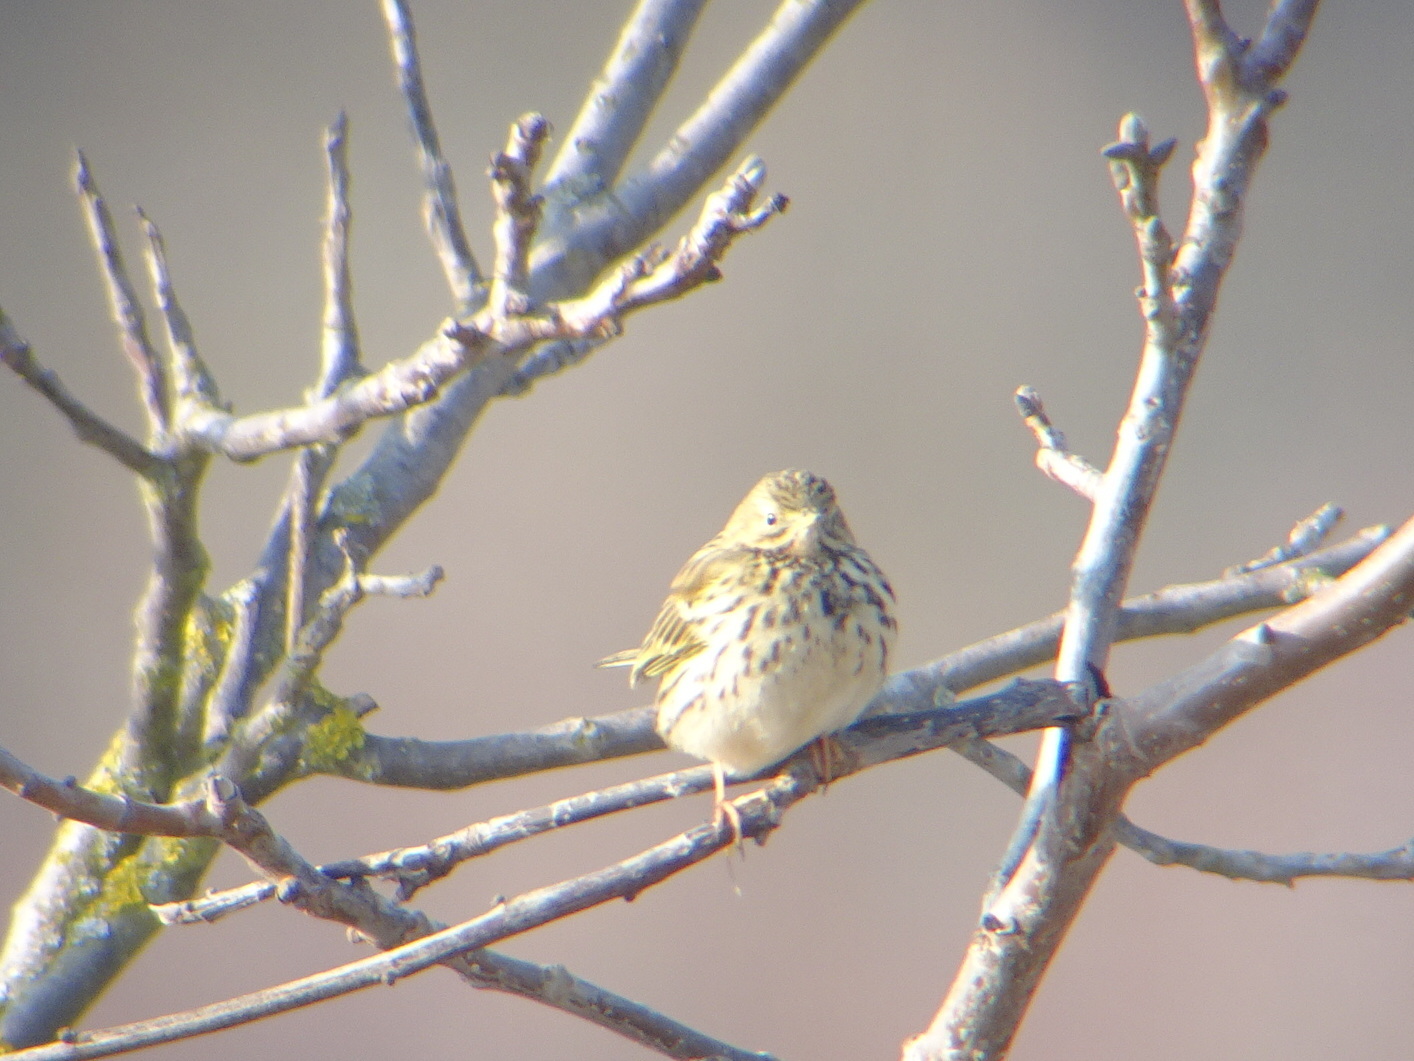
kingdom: Animalia
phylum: Chordata
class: Aves
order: Passeriformes
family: Motacillidae
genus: Anthus
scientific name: Anthus pratensis
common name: Meadow pipit
